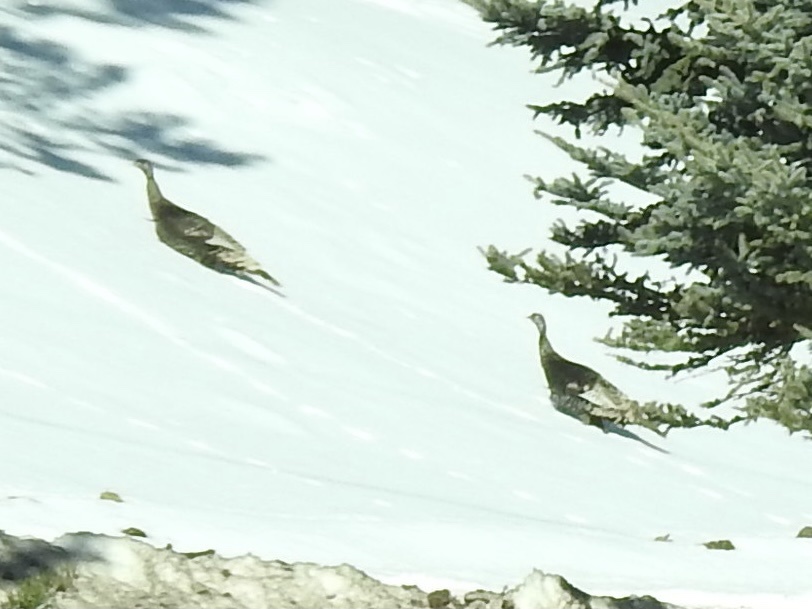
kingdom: Animalia
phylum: Chordata
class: Aves
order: Galliformes
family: Phasianidae
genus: Meleagris
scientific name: Meleagris gallopavo
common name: Wild turkey
